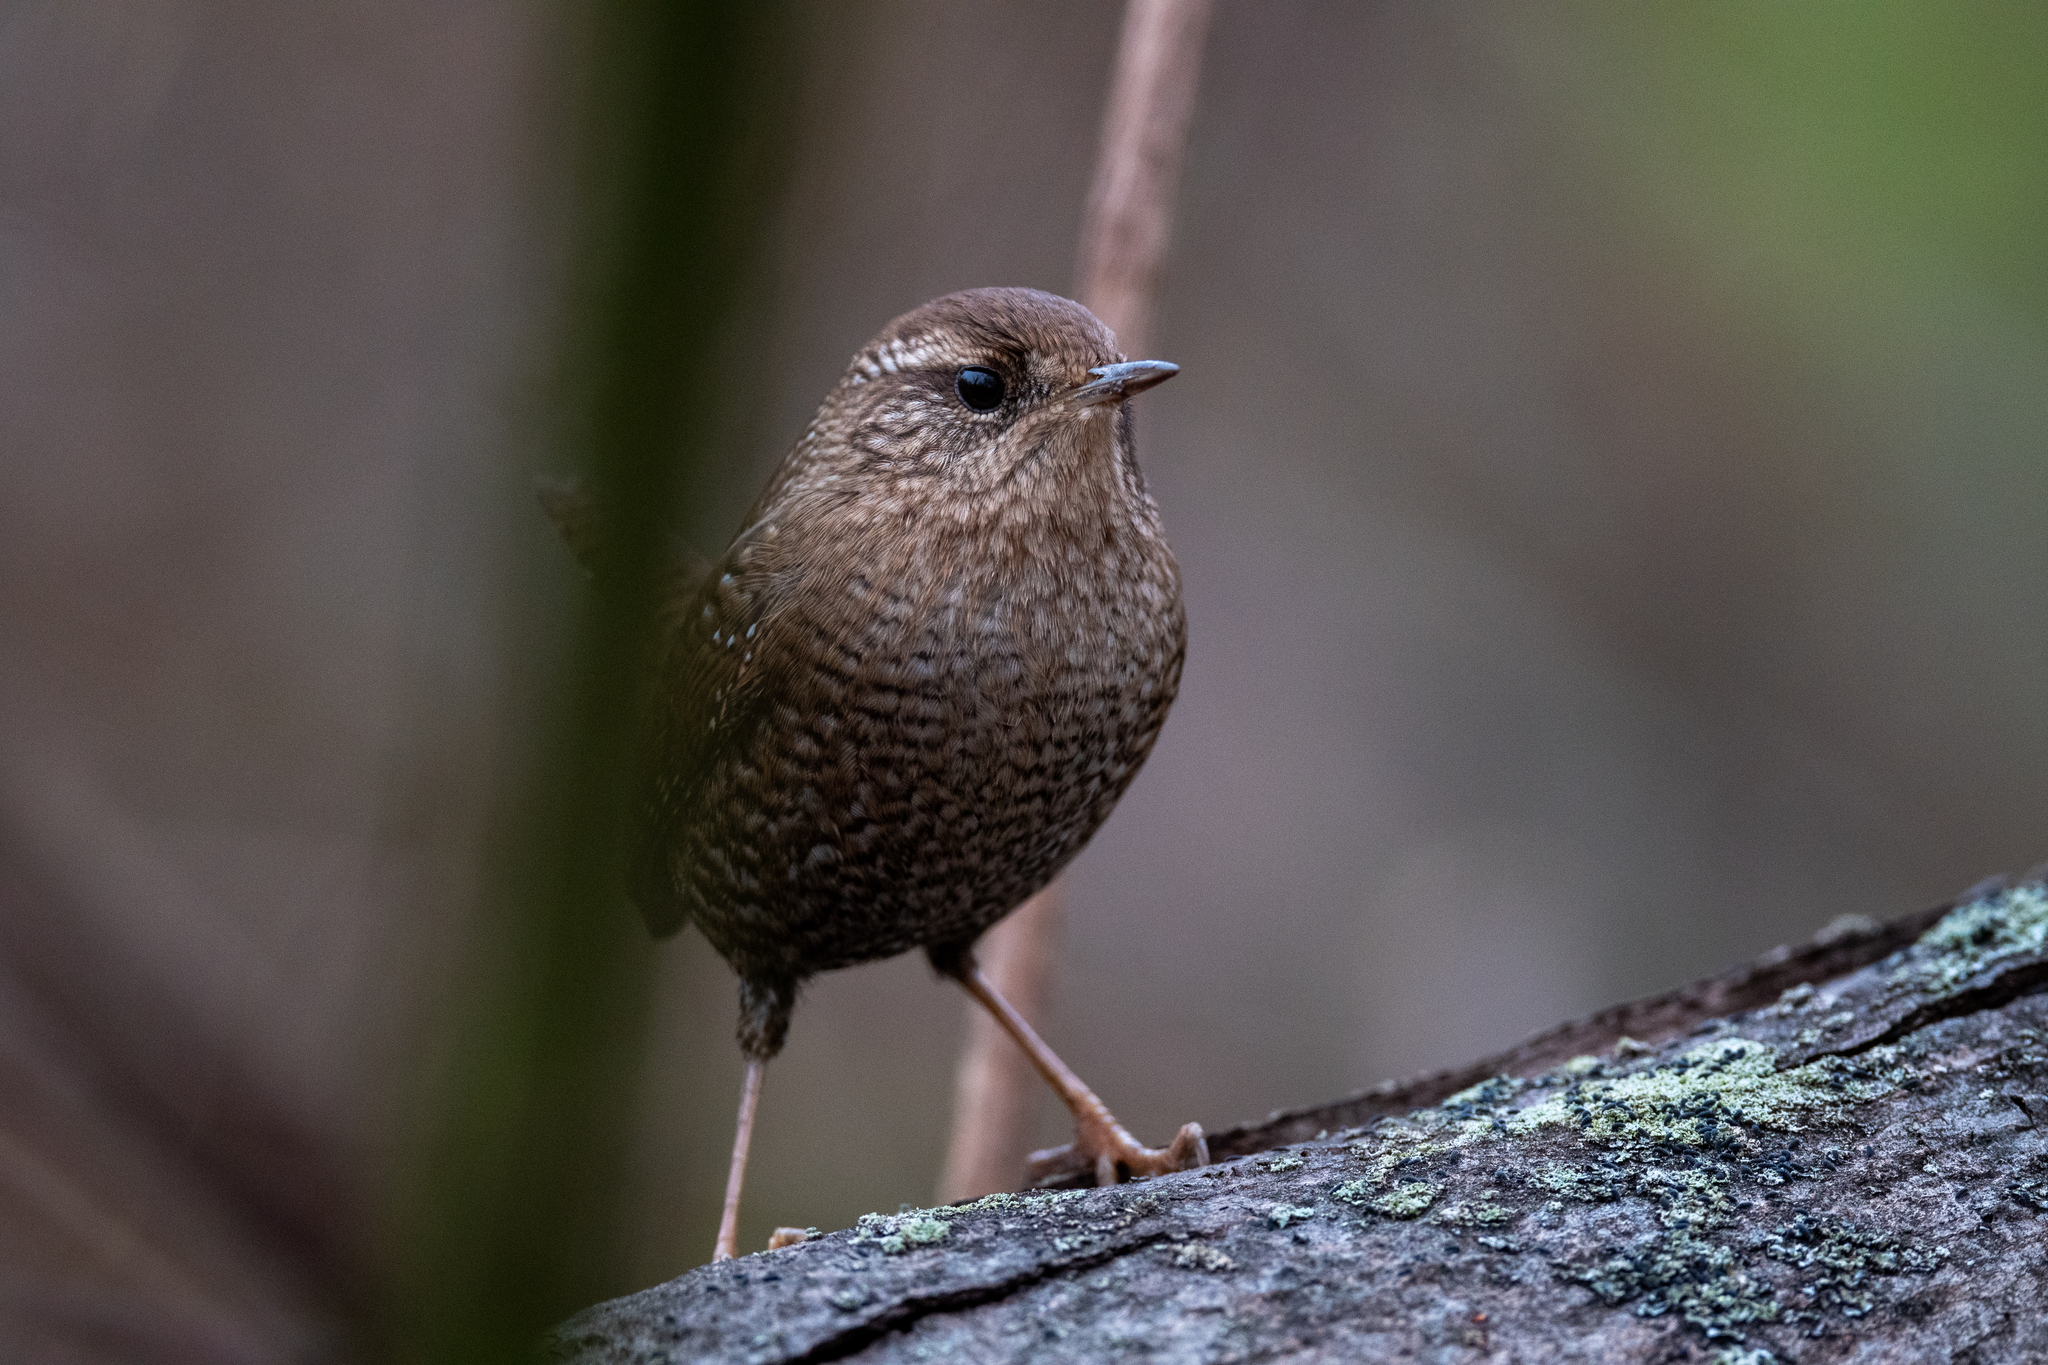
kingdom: Animalia
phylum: Chordata
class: Aves
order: Passeriformes
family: Troglodytidae
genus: Troglodytes
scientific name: Troglodytes hiemalis
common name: Winter wren
